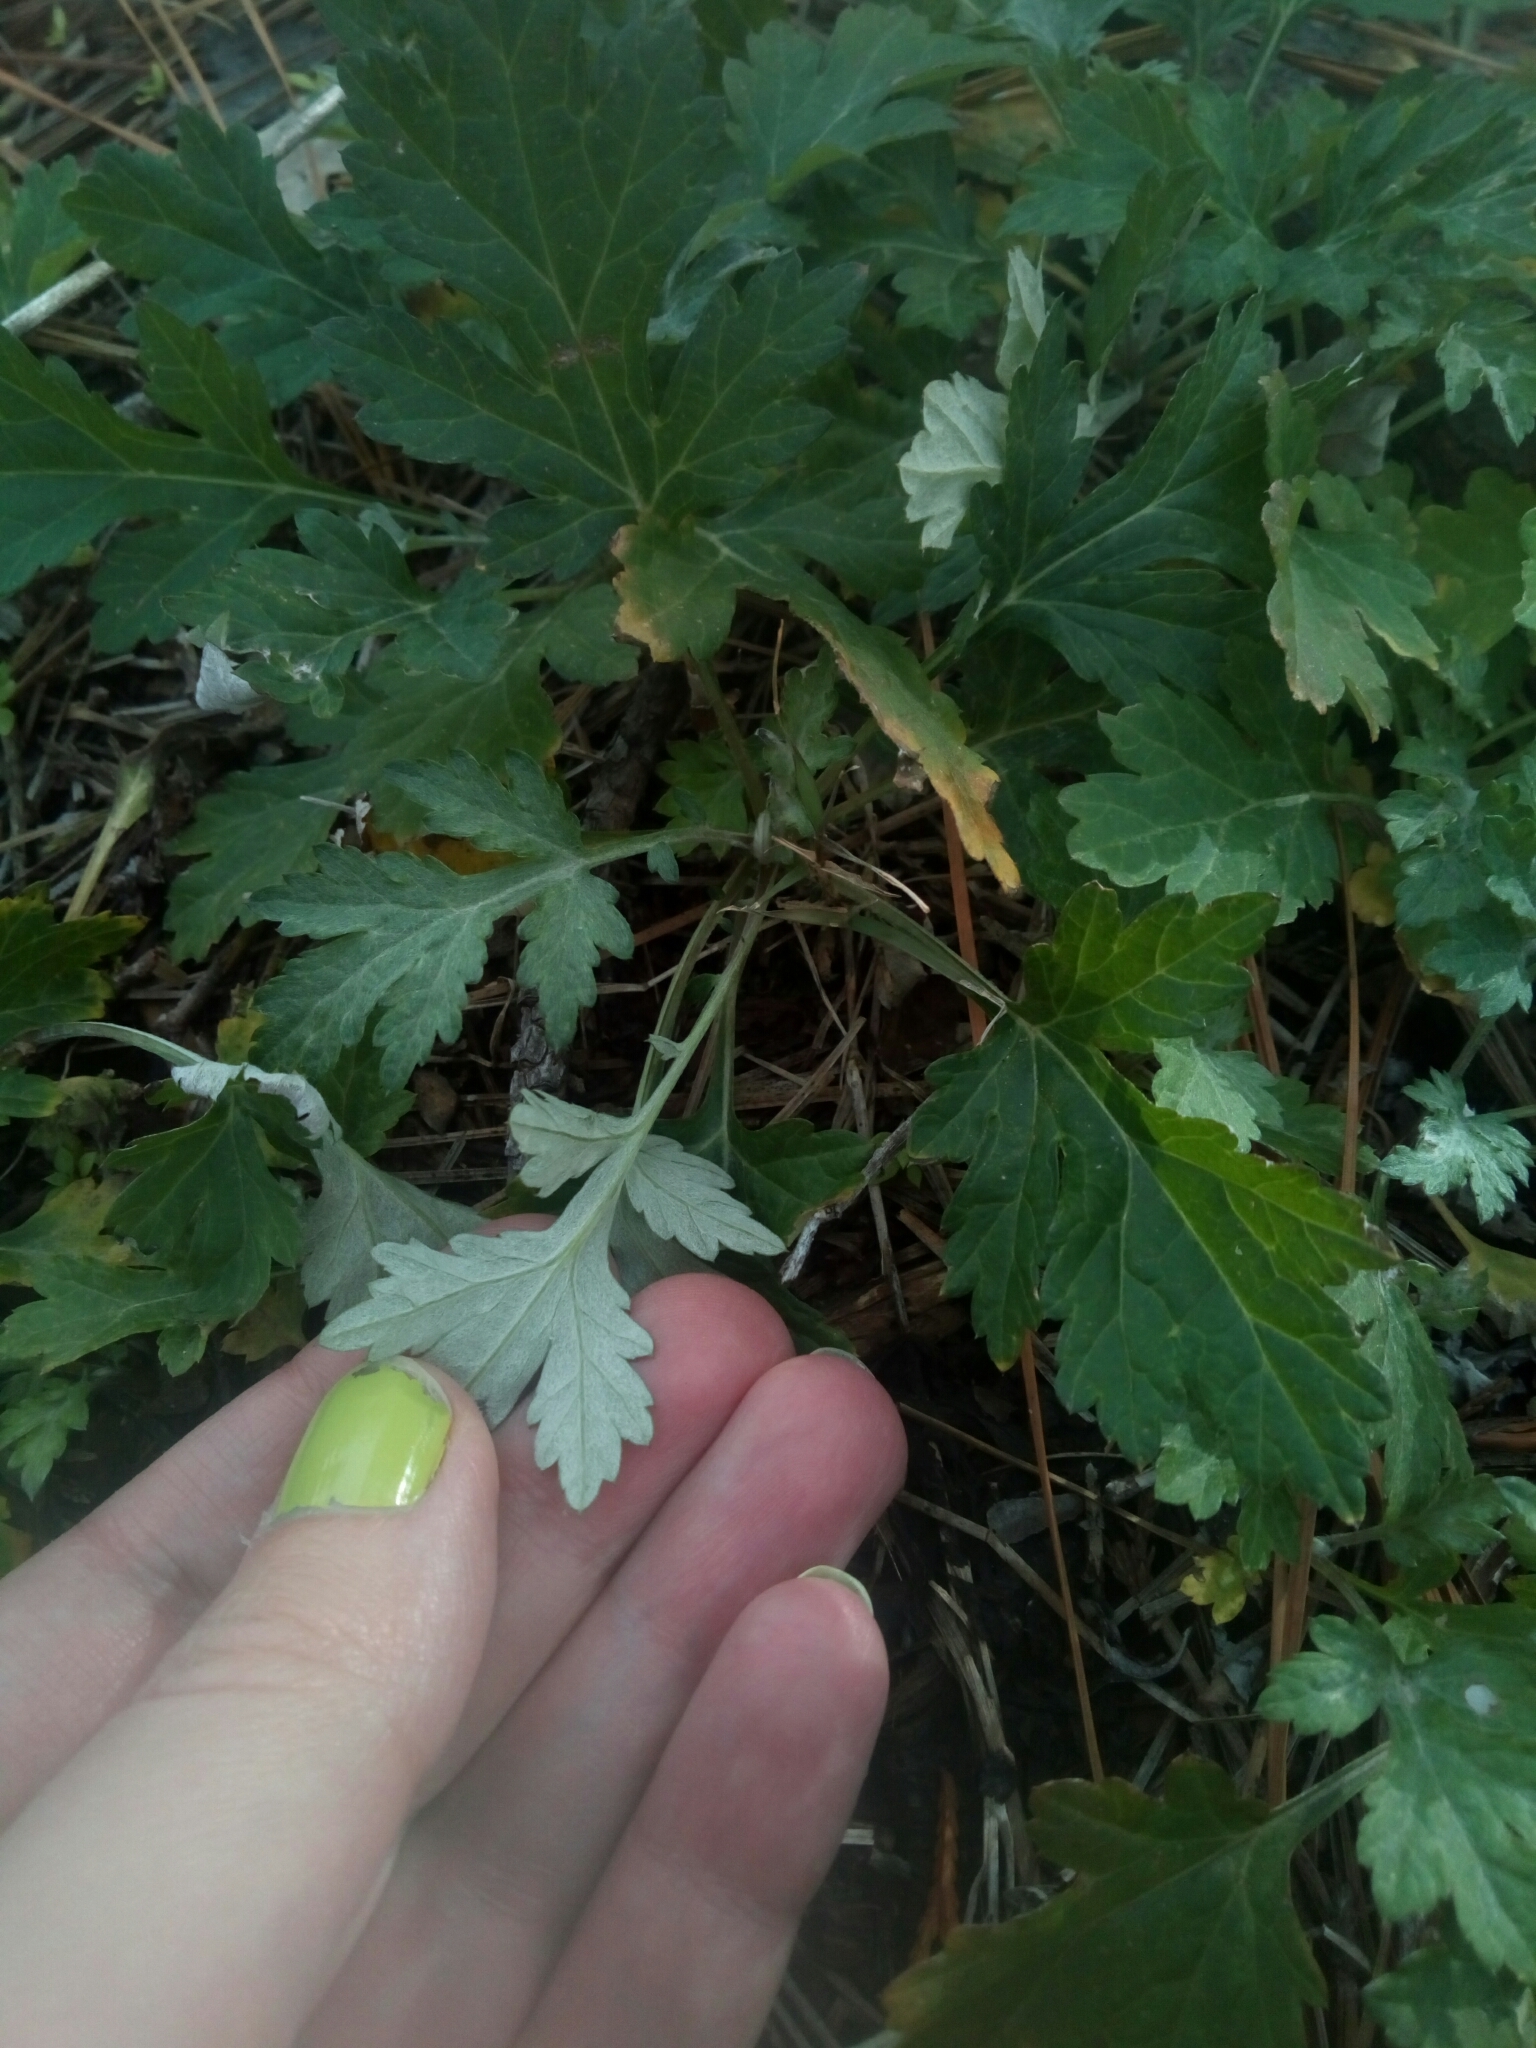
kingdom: Plantae
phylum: Tracheophyta
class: Magnoliopsida
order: Asterales
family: Asteraceae
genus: Artemisia
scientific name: Artemisia vulgaris
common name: Mugwort
